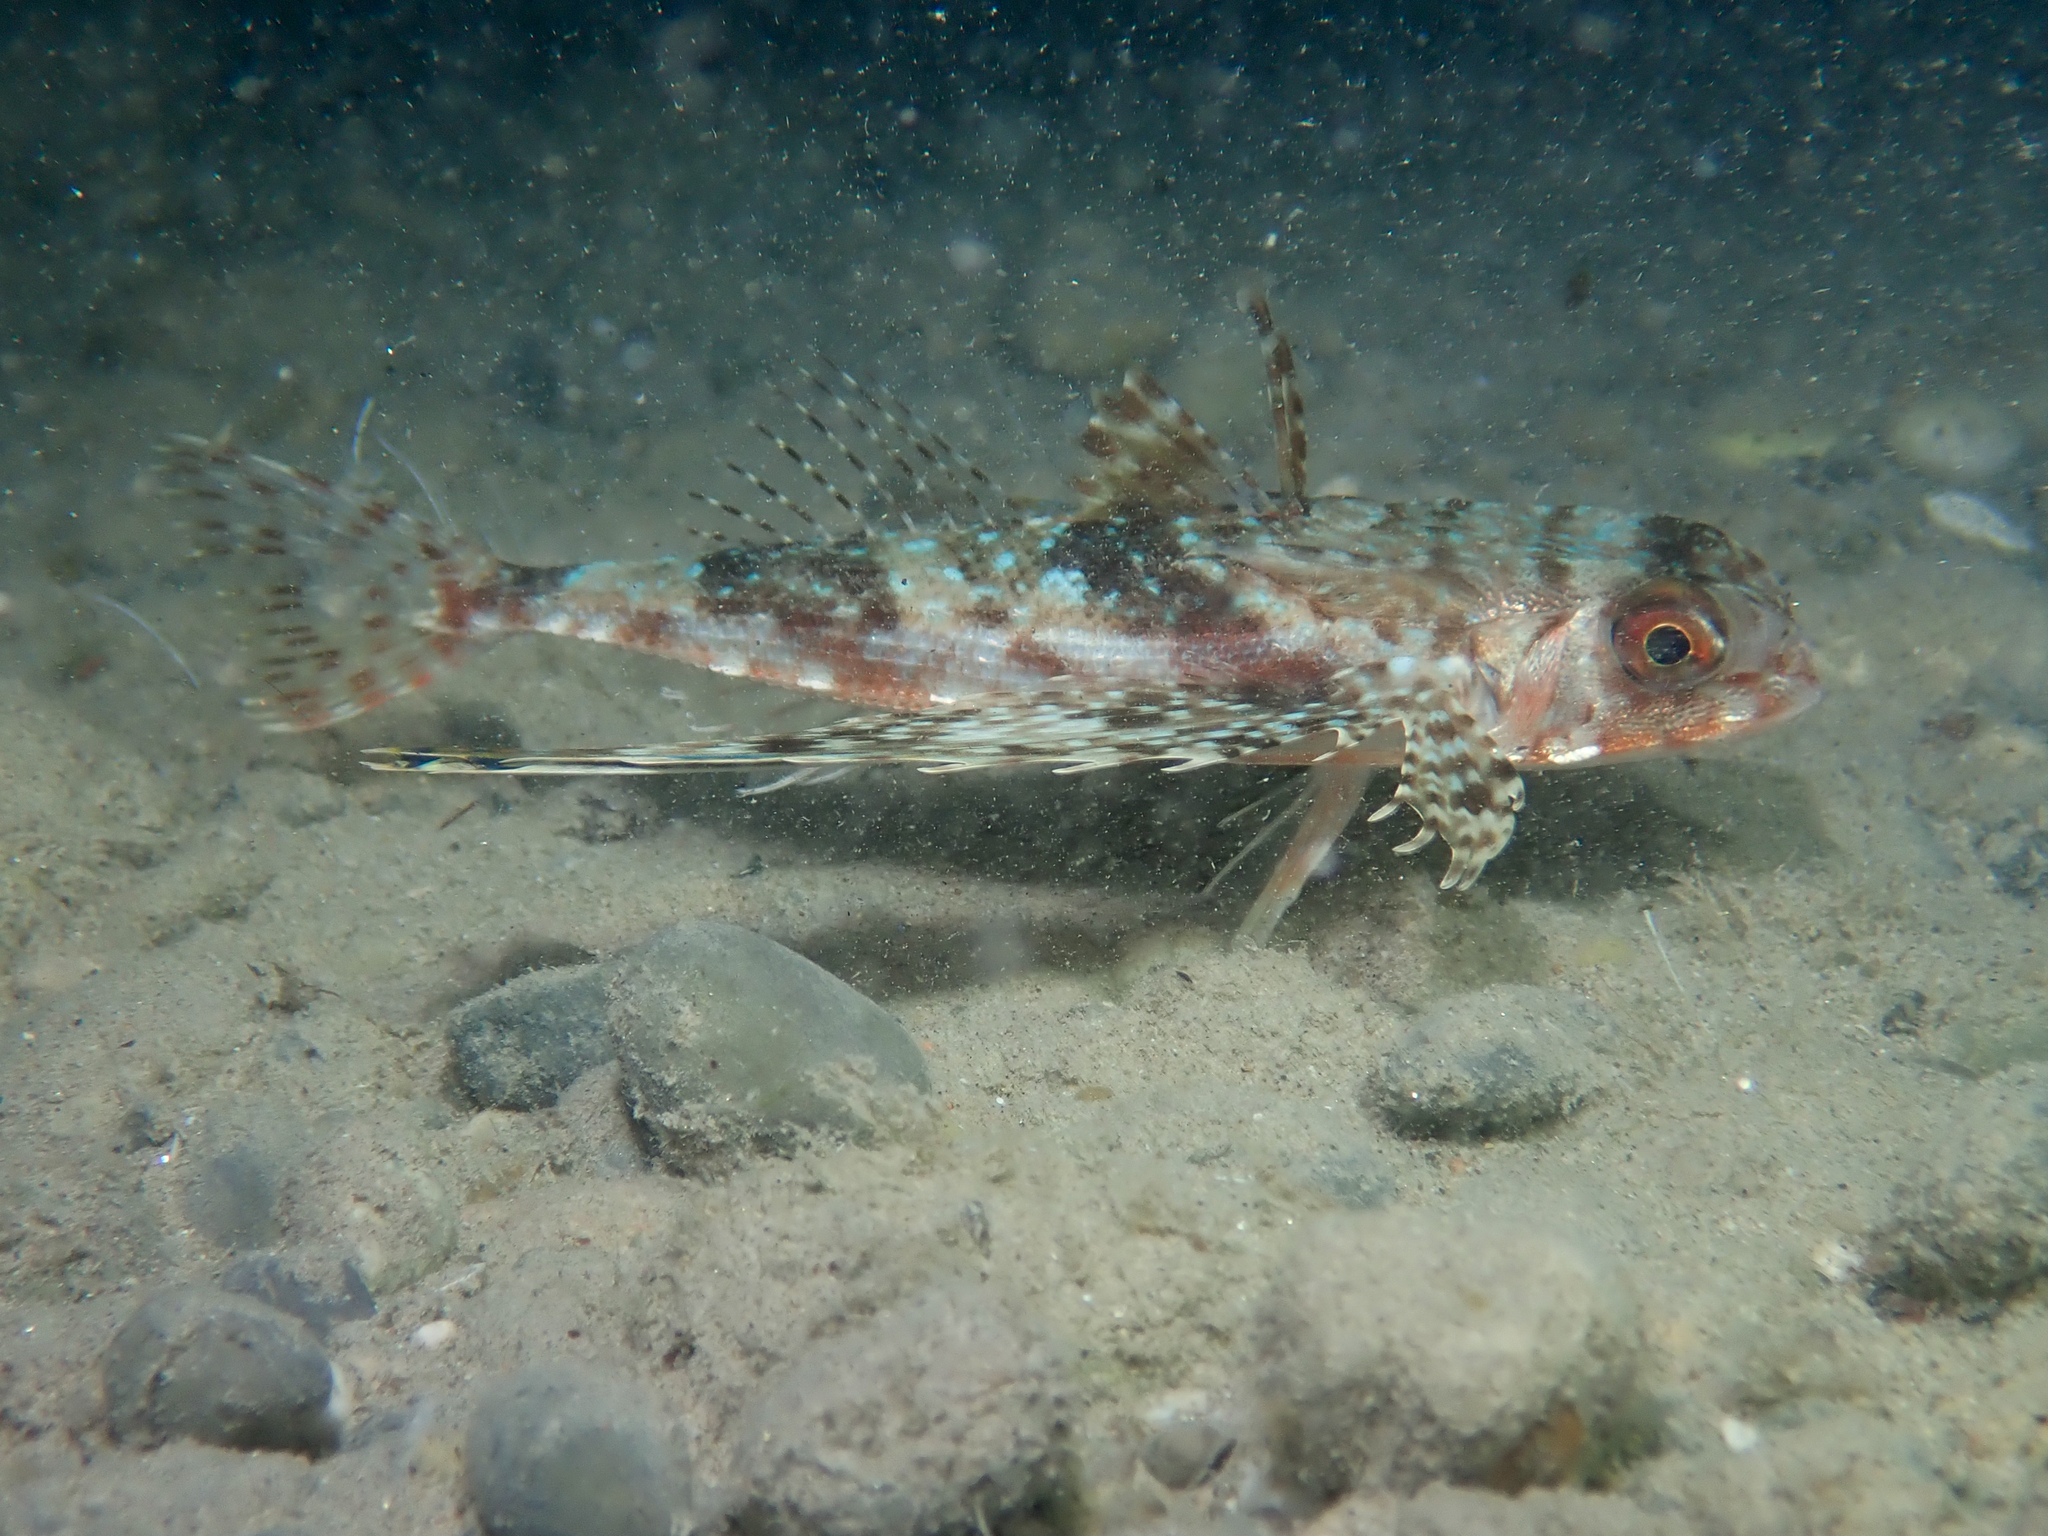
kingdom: Animalia
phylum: Chordata
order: Scorpaeniformes
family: Dactylopteridae
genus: Dactylopterus
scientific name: Dactylopterus volitans
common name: Flying gurnard
